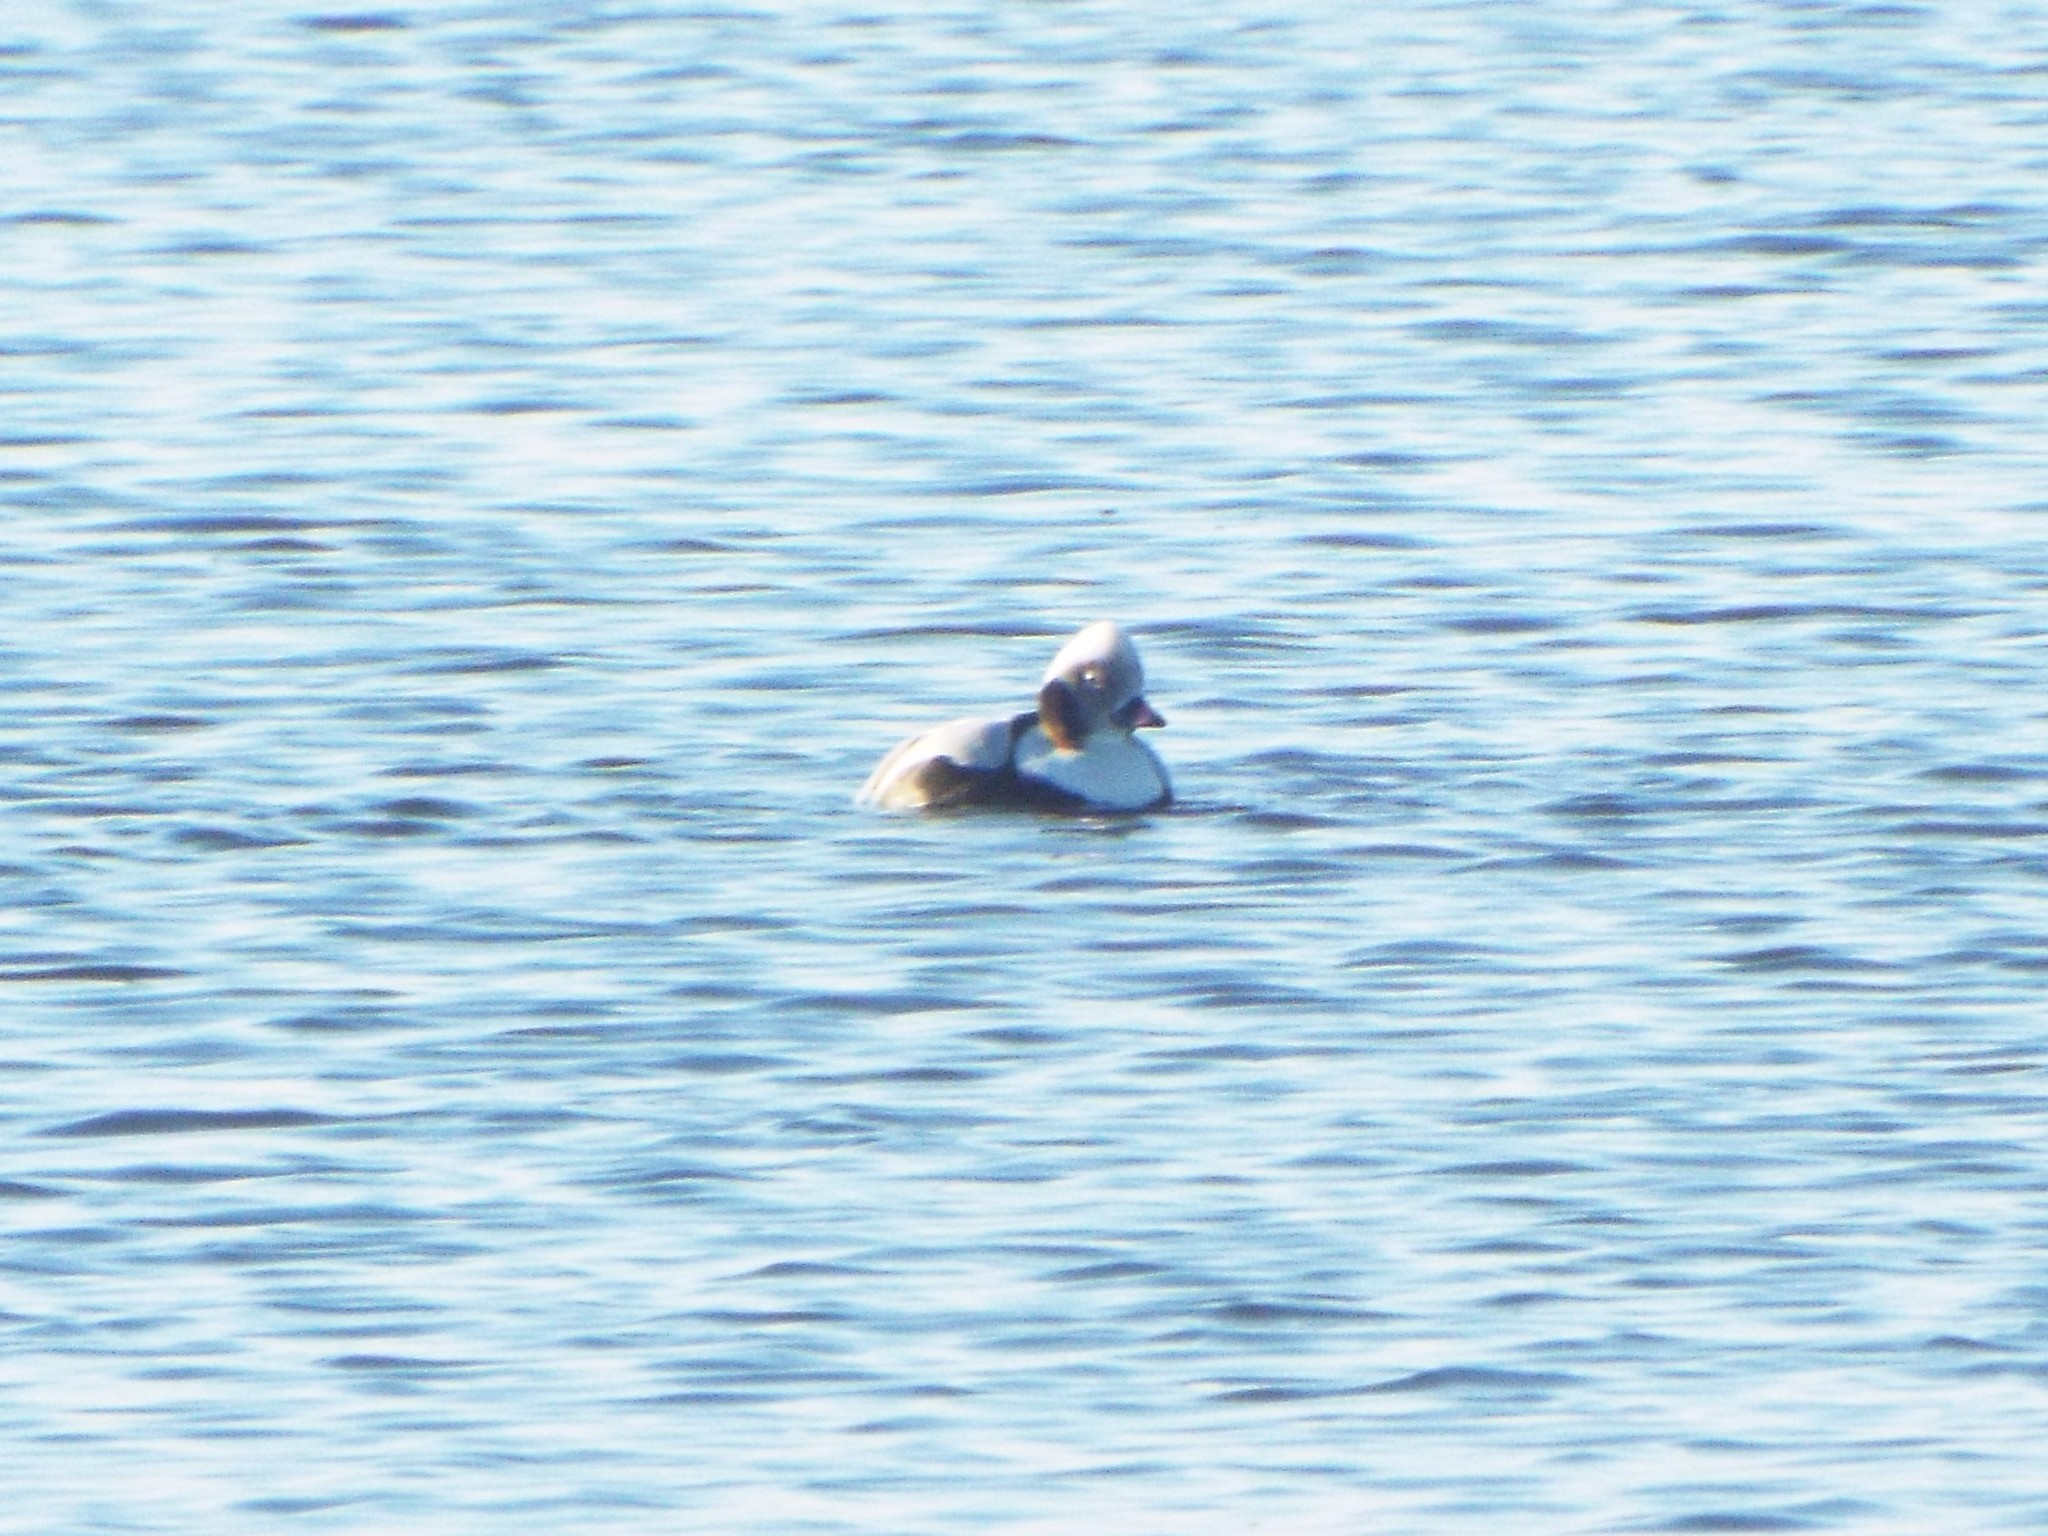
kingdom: Animalia
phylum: Chordata
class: Aves
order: Anseriformes
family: Anatidae
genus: Clangula
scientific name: Clangula hyemalis
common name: Long-tailed duck
